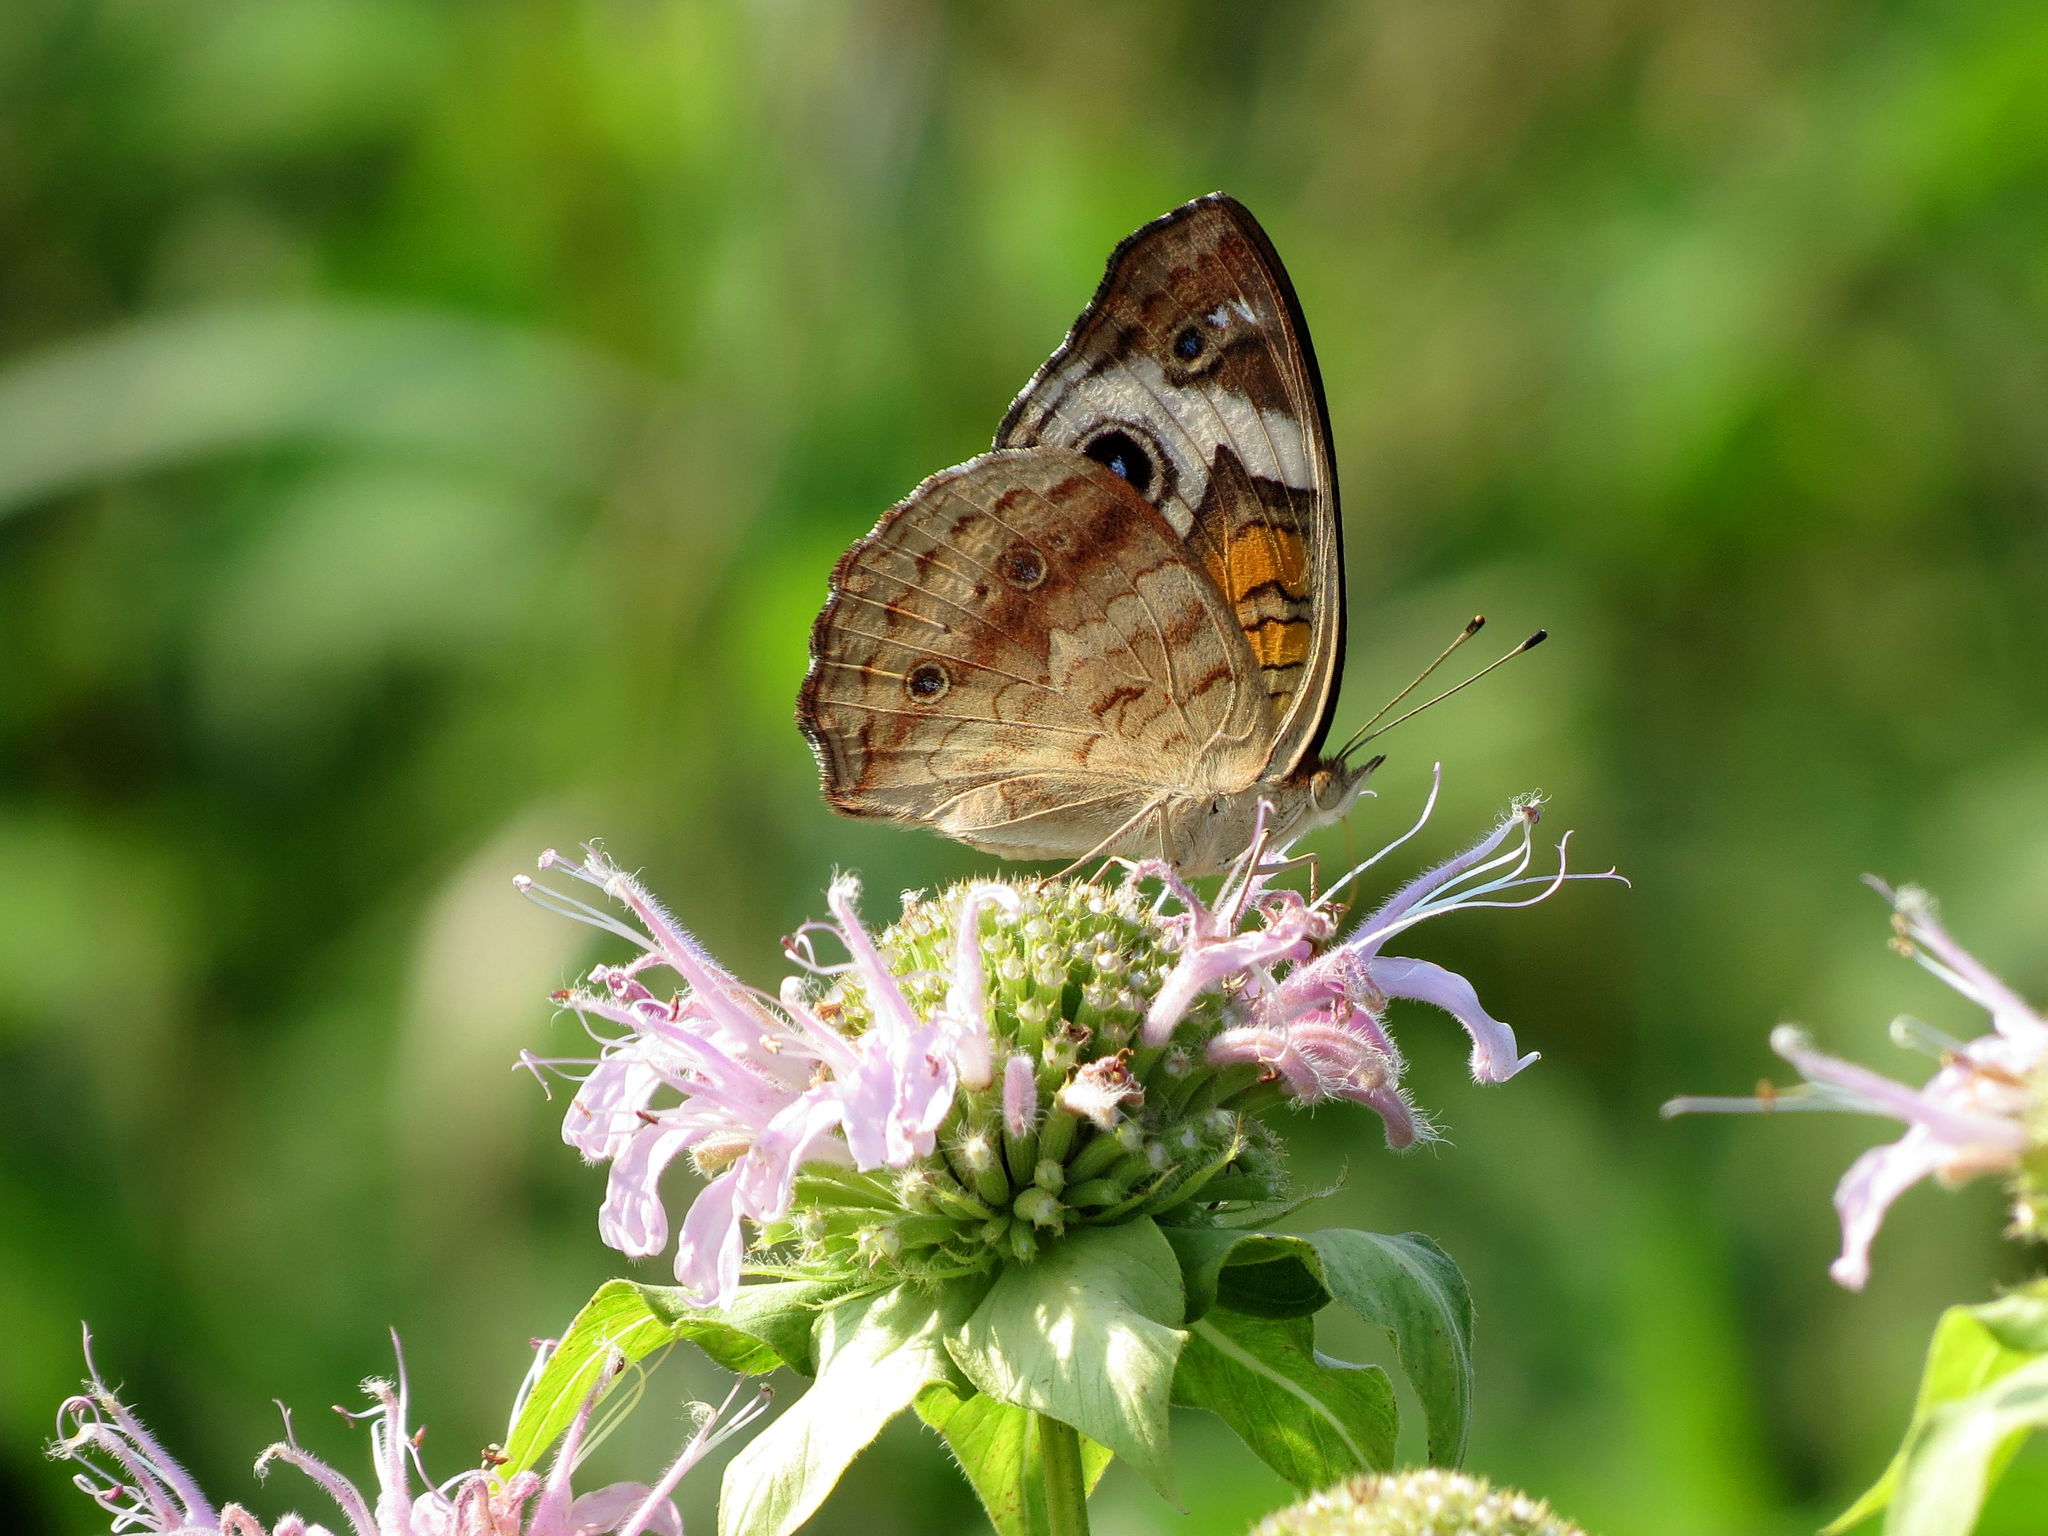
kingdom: Animalia
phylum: Arthropoda
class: Insecta
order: Lepidoptera
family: Nymphalidae
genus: Junonia
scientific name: Junonia coenia
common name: Common buckeye
